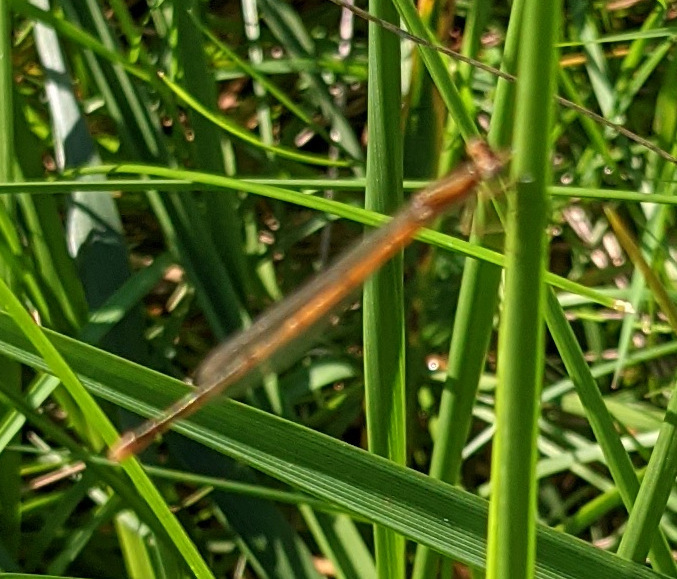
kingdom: Animalia
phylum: Arthropoda
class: Insecta
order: Odonata
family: Coenagrionidae
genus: Ischnura
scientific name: Ischnura hastata
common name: Citrine forktail
